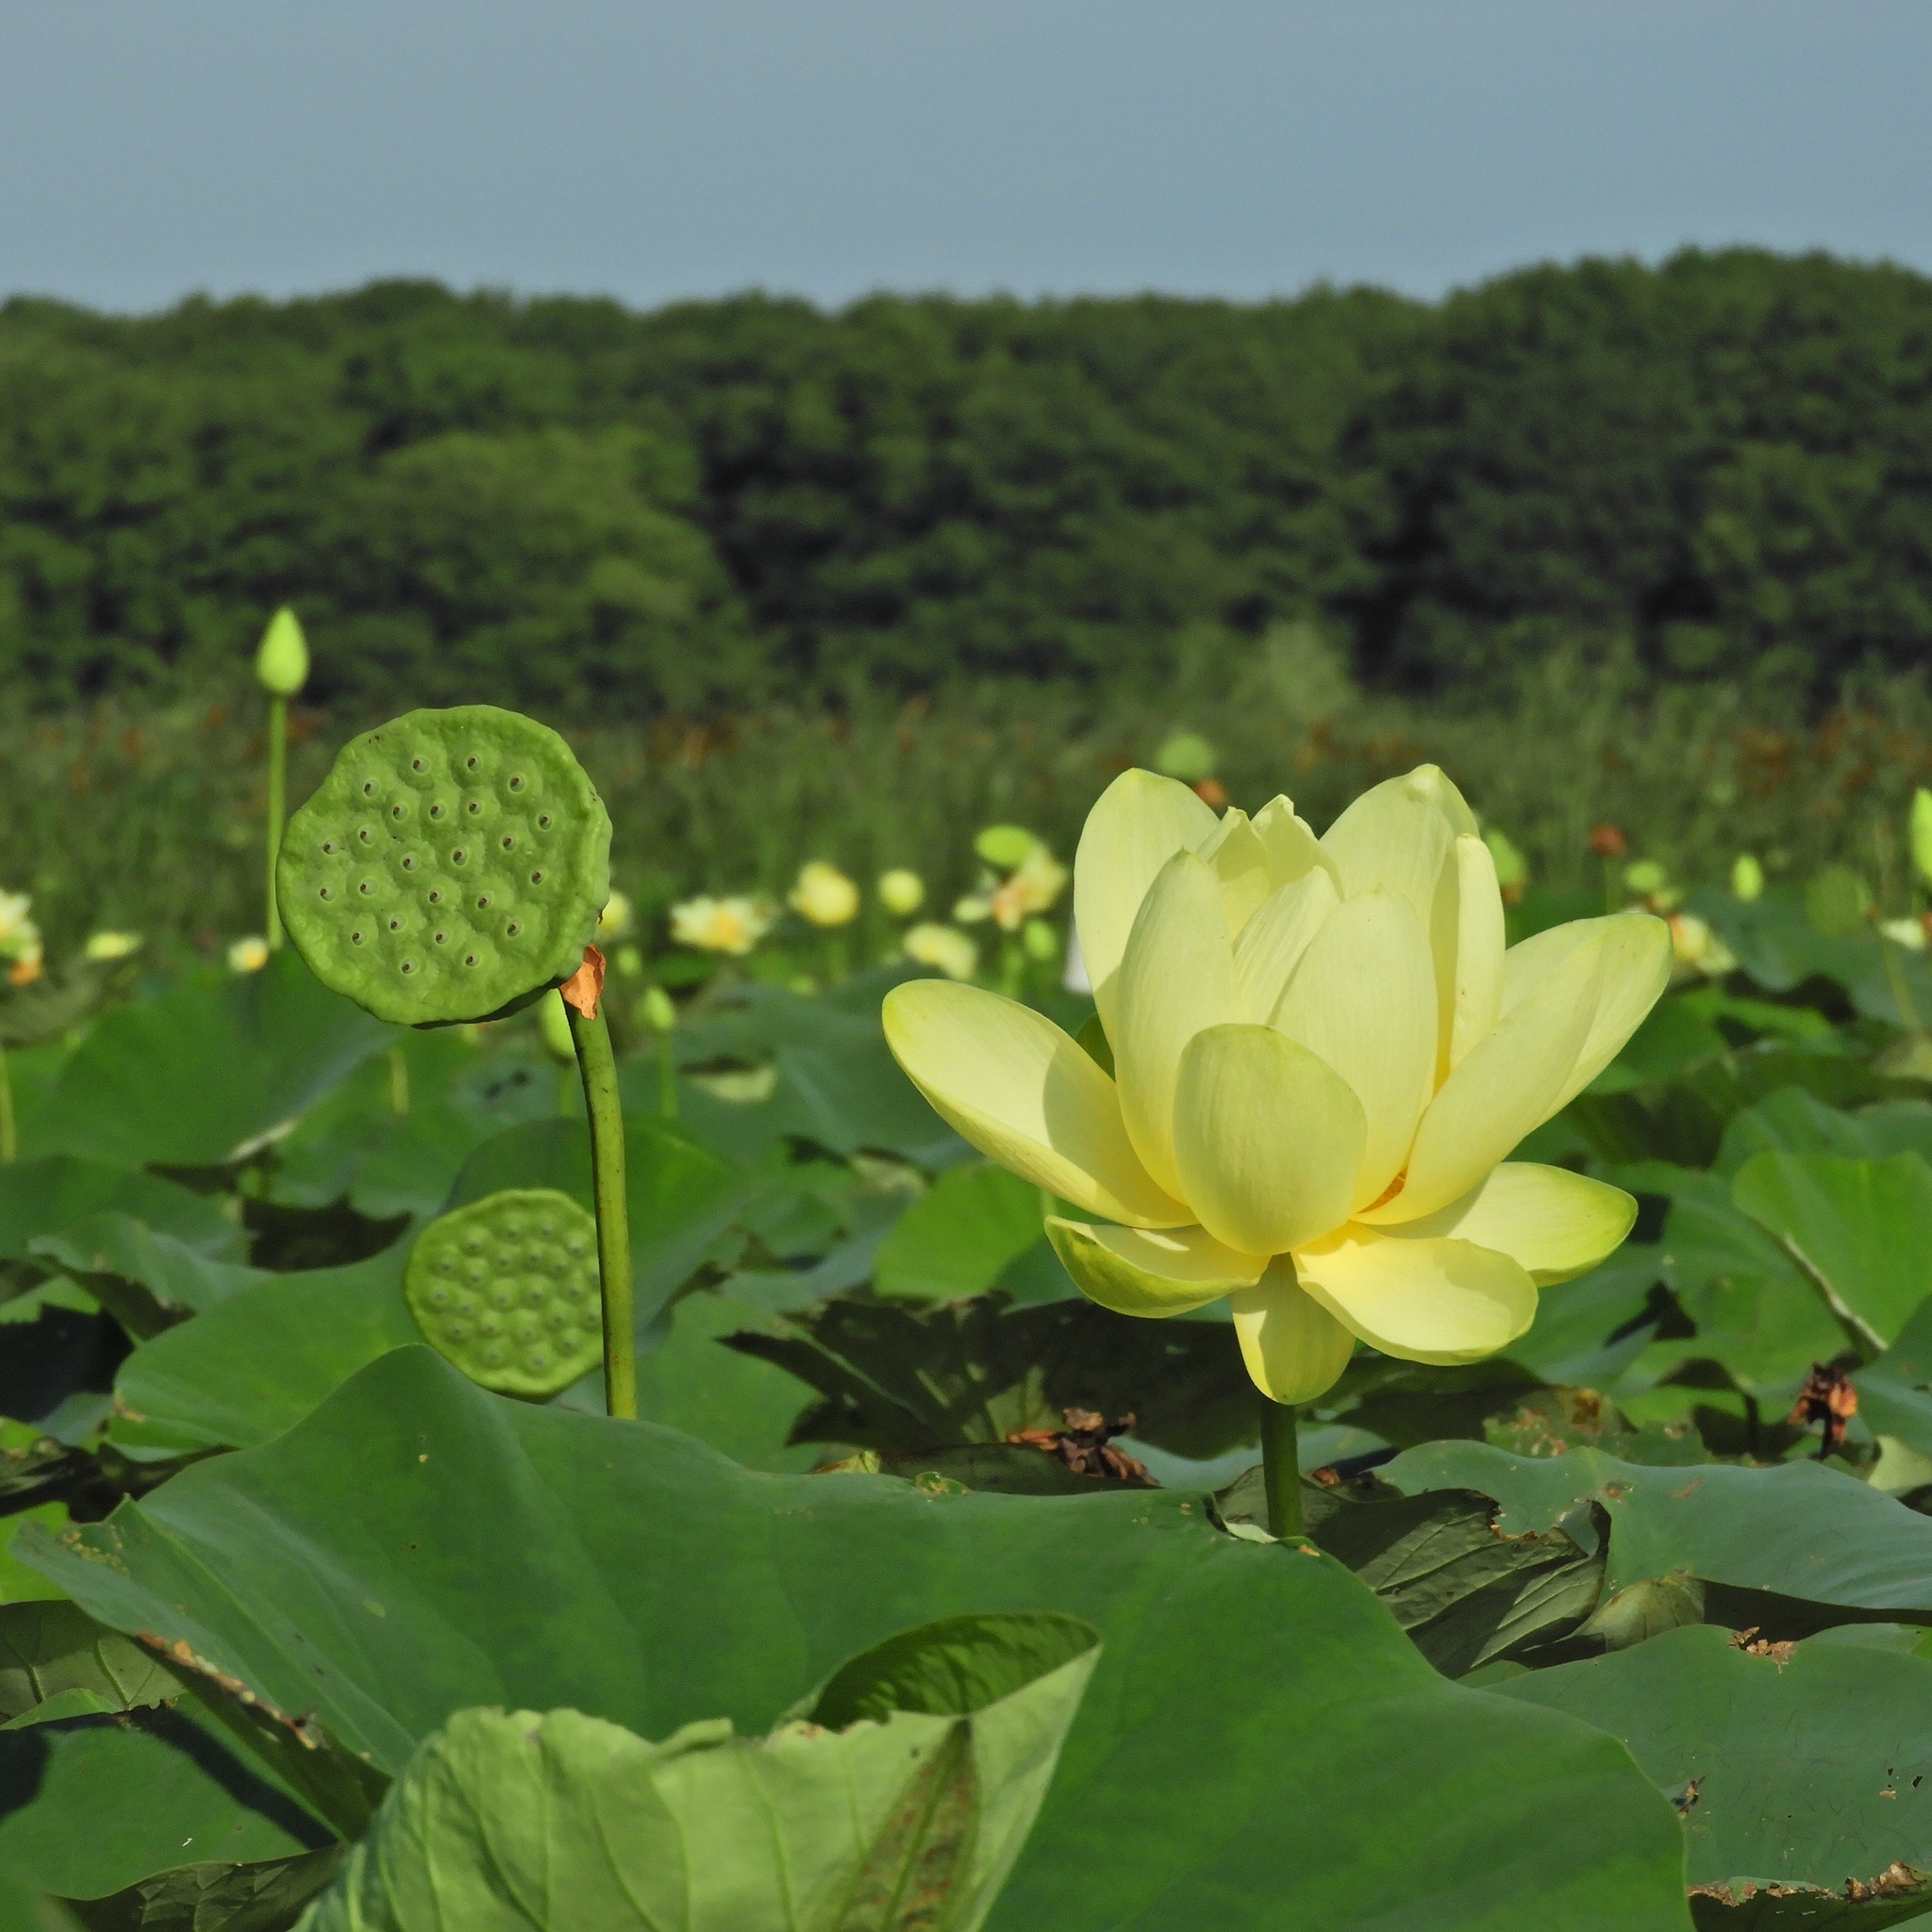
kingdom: Plantae
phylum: Tracheophyta
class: Magnoliopsida
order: Proteales
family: Nelumbonaceae
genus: Nelumbo
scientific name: Nelumbo lutea
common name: American lotus
